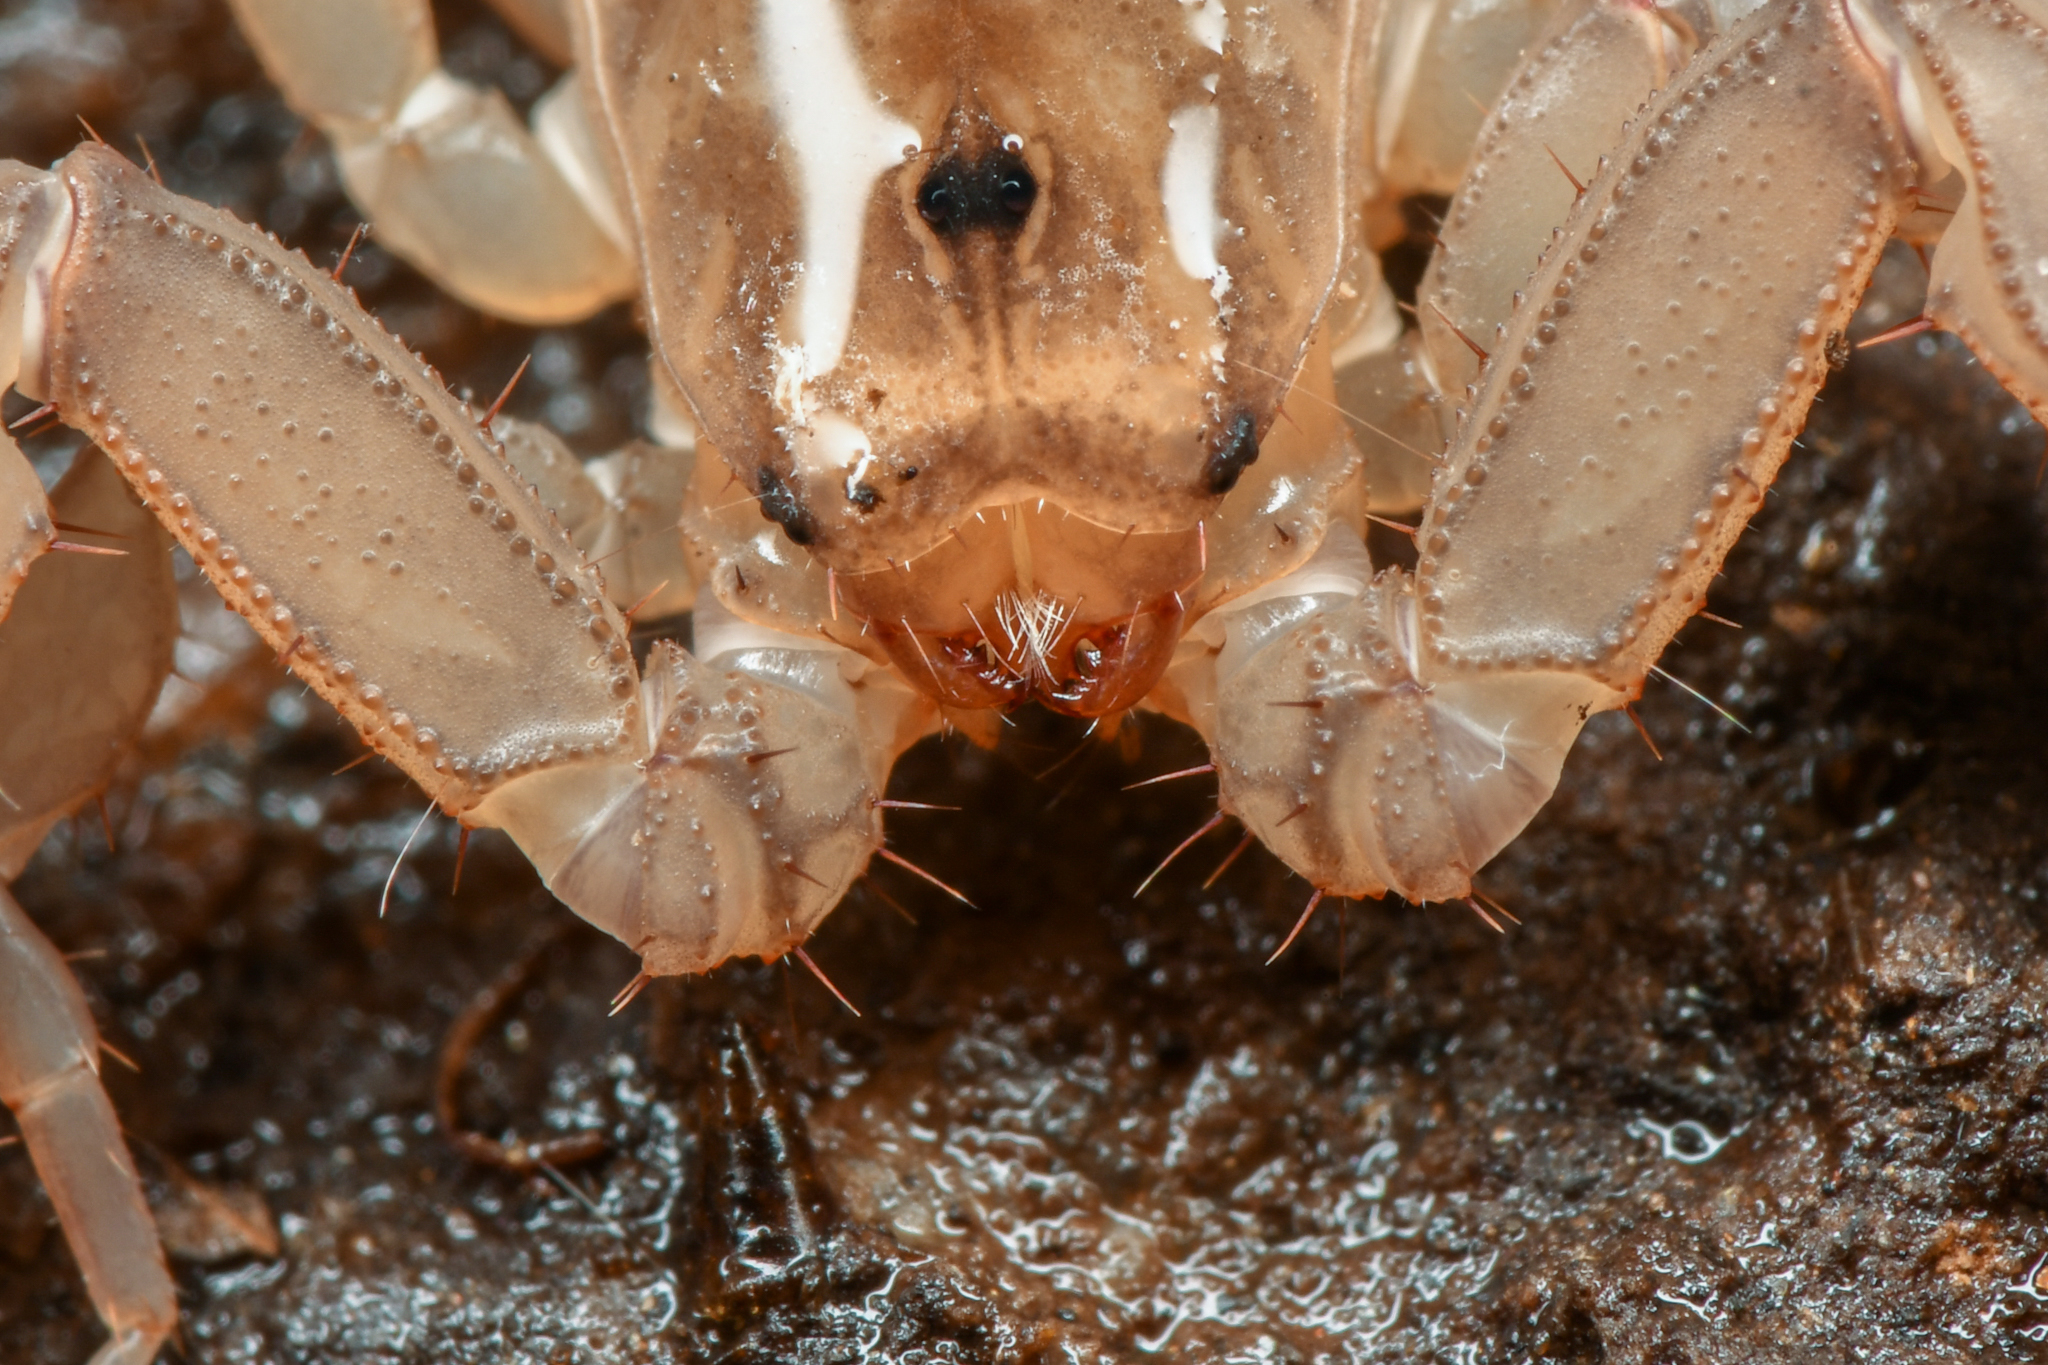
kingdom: Animalia
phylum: Arthropoda
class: Arachnida
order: Scorpiones
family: Vaejovidae
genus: Kovarikia
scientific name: Kovarikia williamsi
